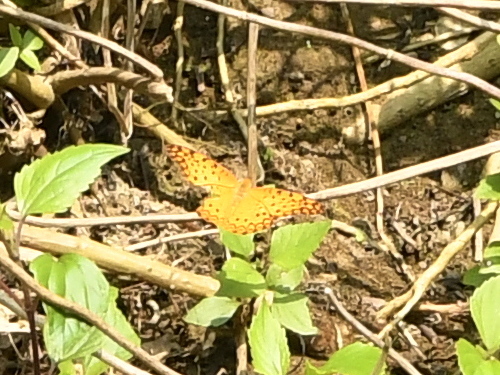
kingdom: Animalia
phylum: Arthropoda
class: Insecta
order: Lepidoptera
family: Nymphalidae
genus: Phalanta
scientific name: Phalanta phalantha
